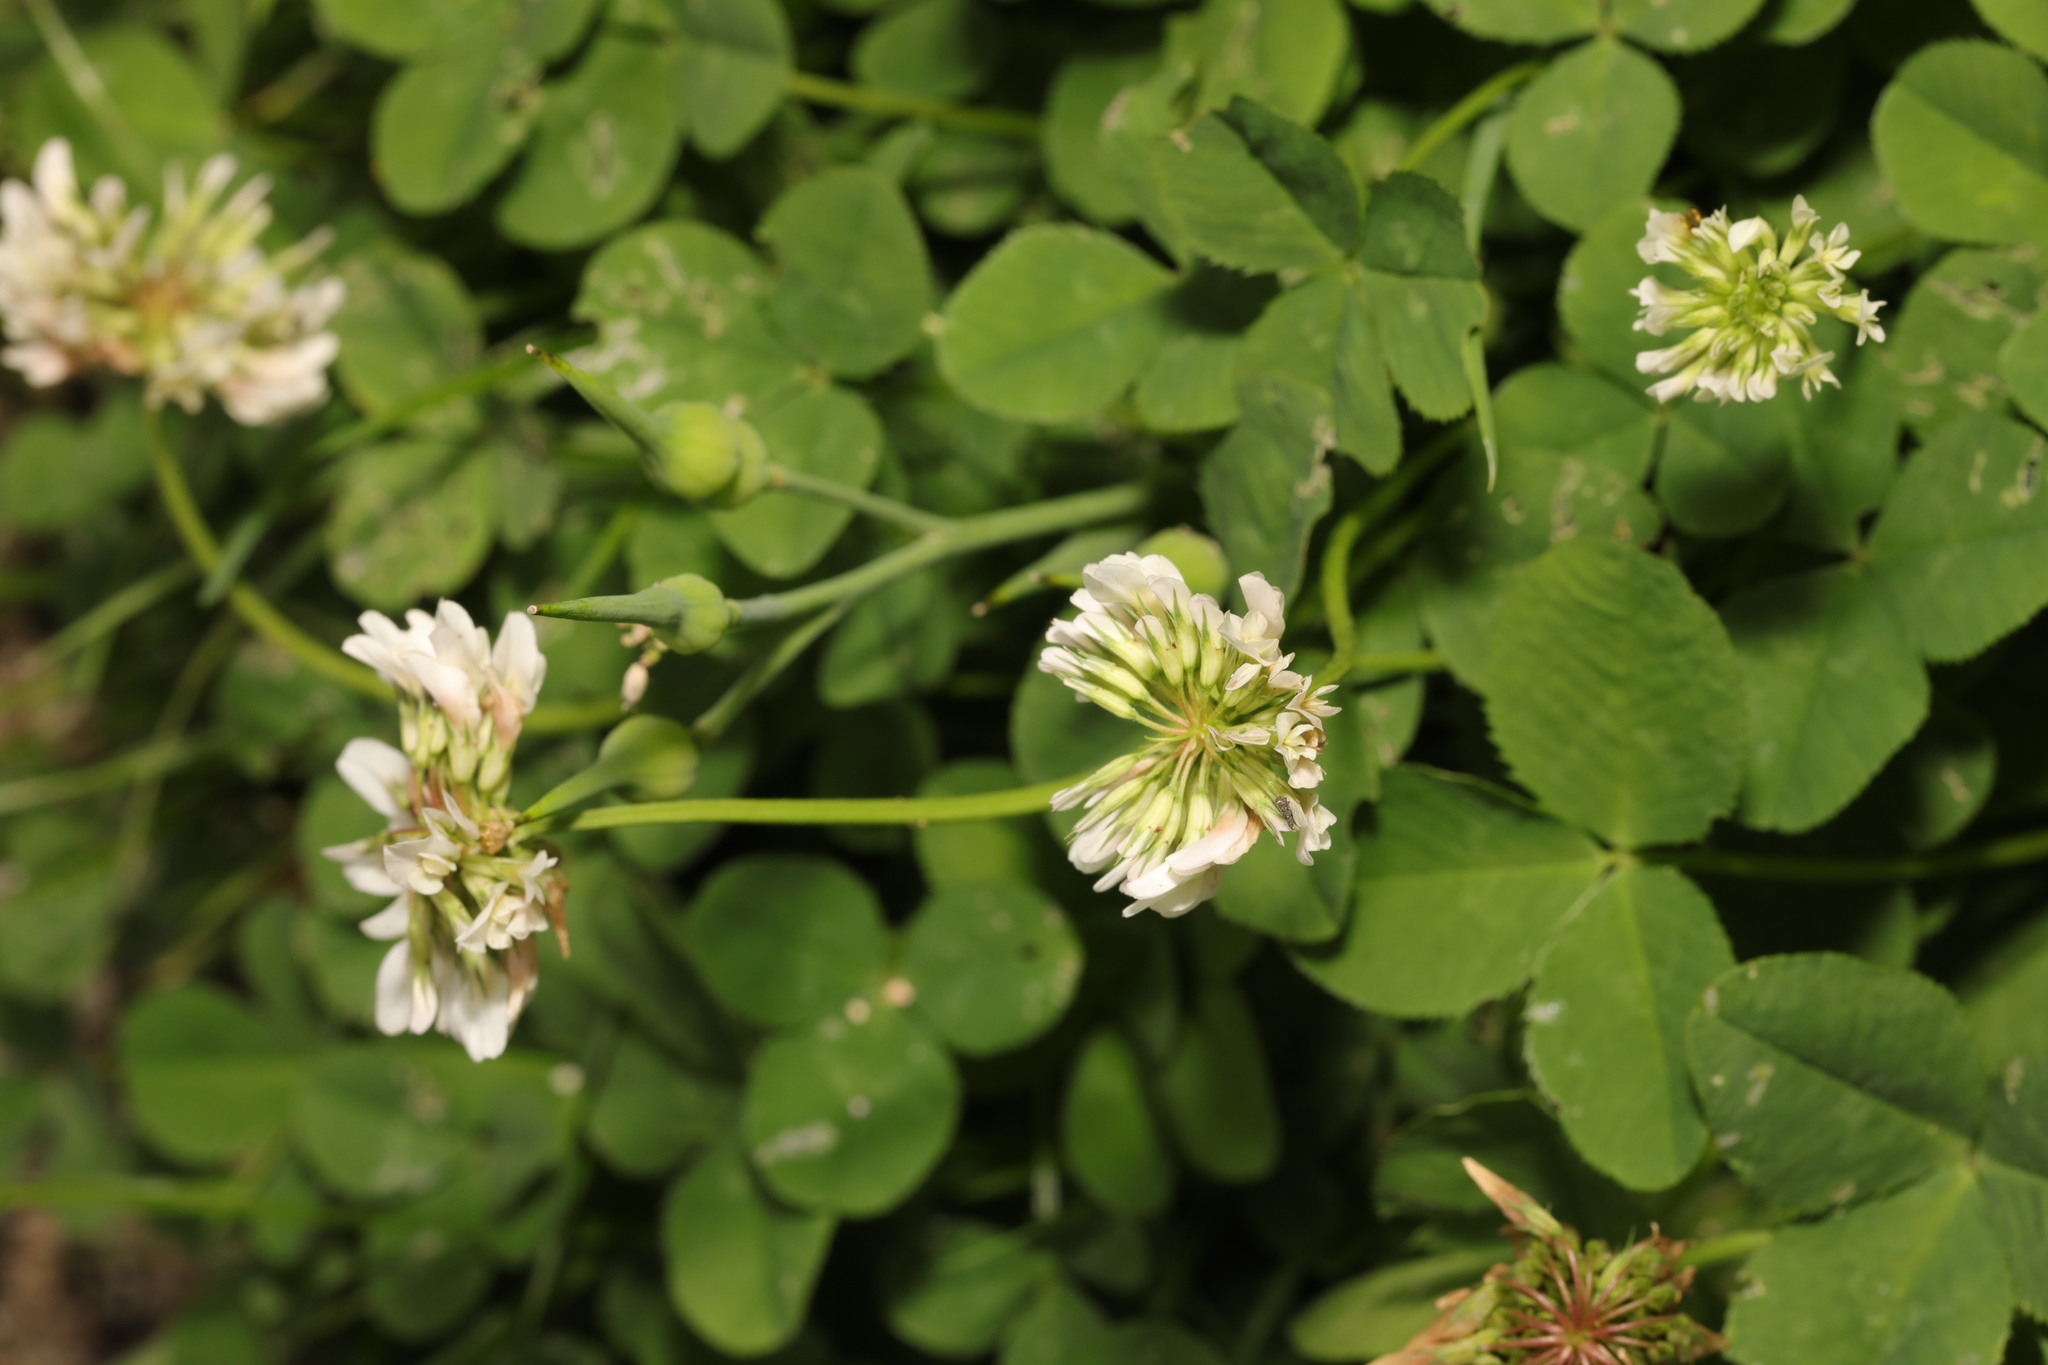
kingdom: Plantae
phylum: Tracheophyta
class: Magnoliopsida
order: Fabales
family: Fabaceae
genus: Trifolium
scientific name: Trifolium repens
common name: White clover
